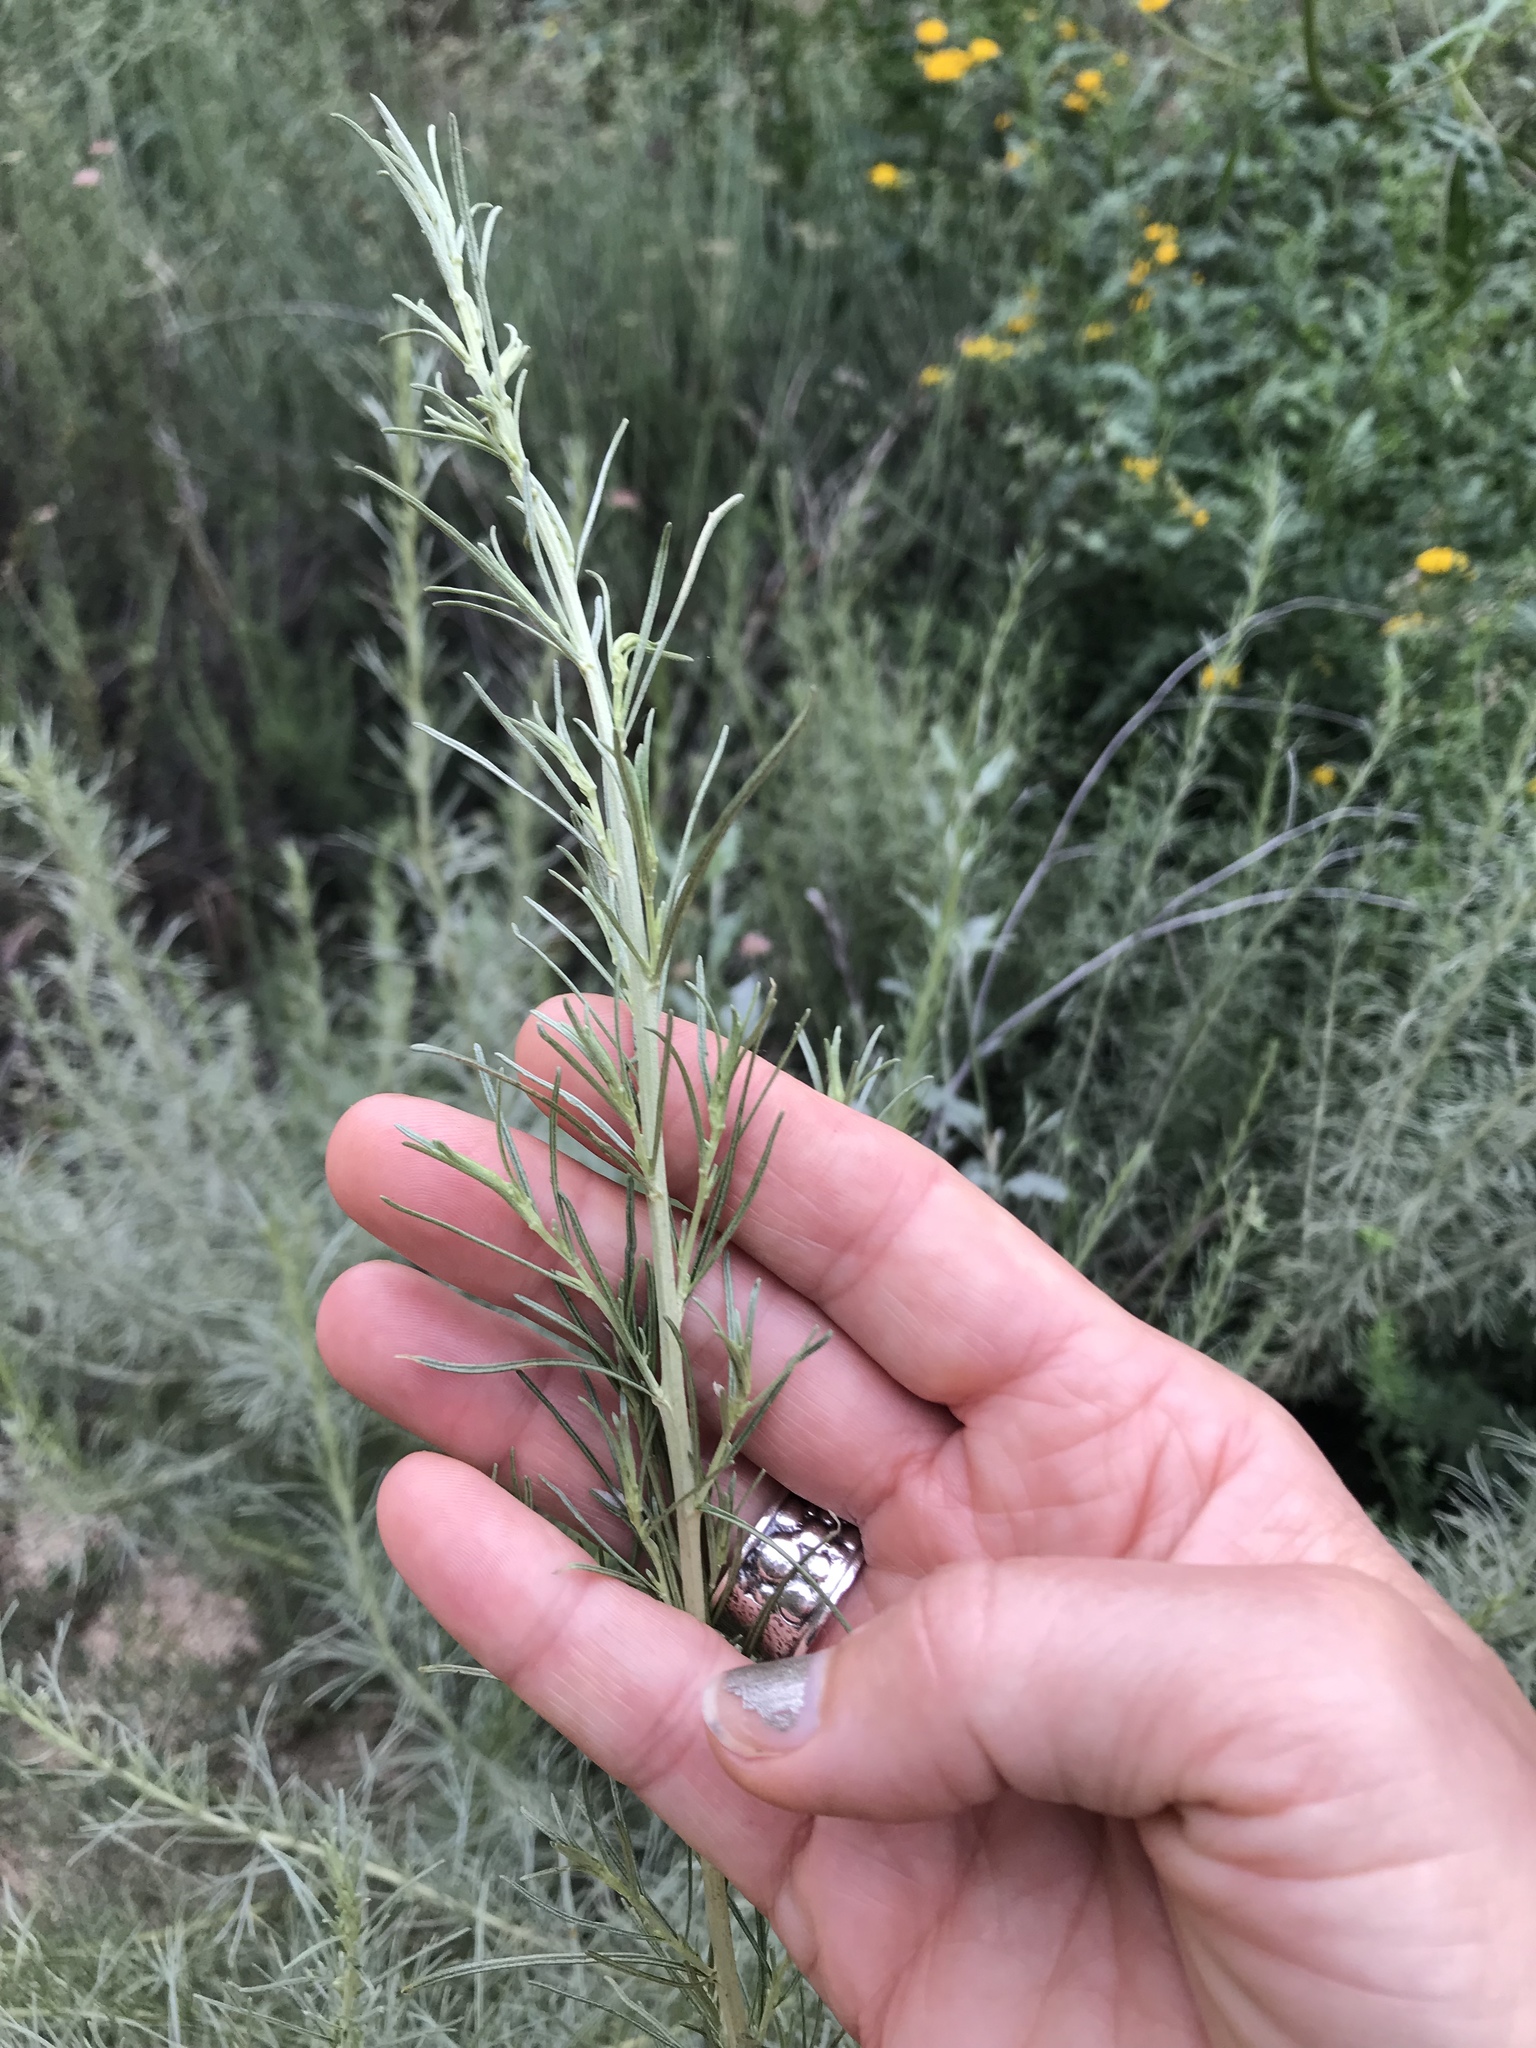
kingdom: Plantae
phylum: Tracheophyta
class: Magnoliopsida
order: Asterales
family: Asteraceae
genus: Artemisia
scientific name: Artemisia californica
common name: California sagebrush
